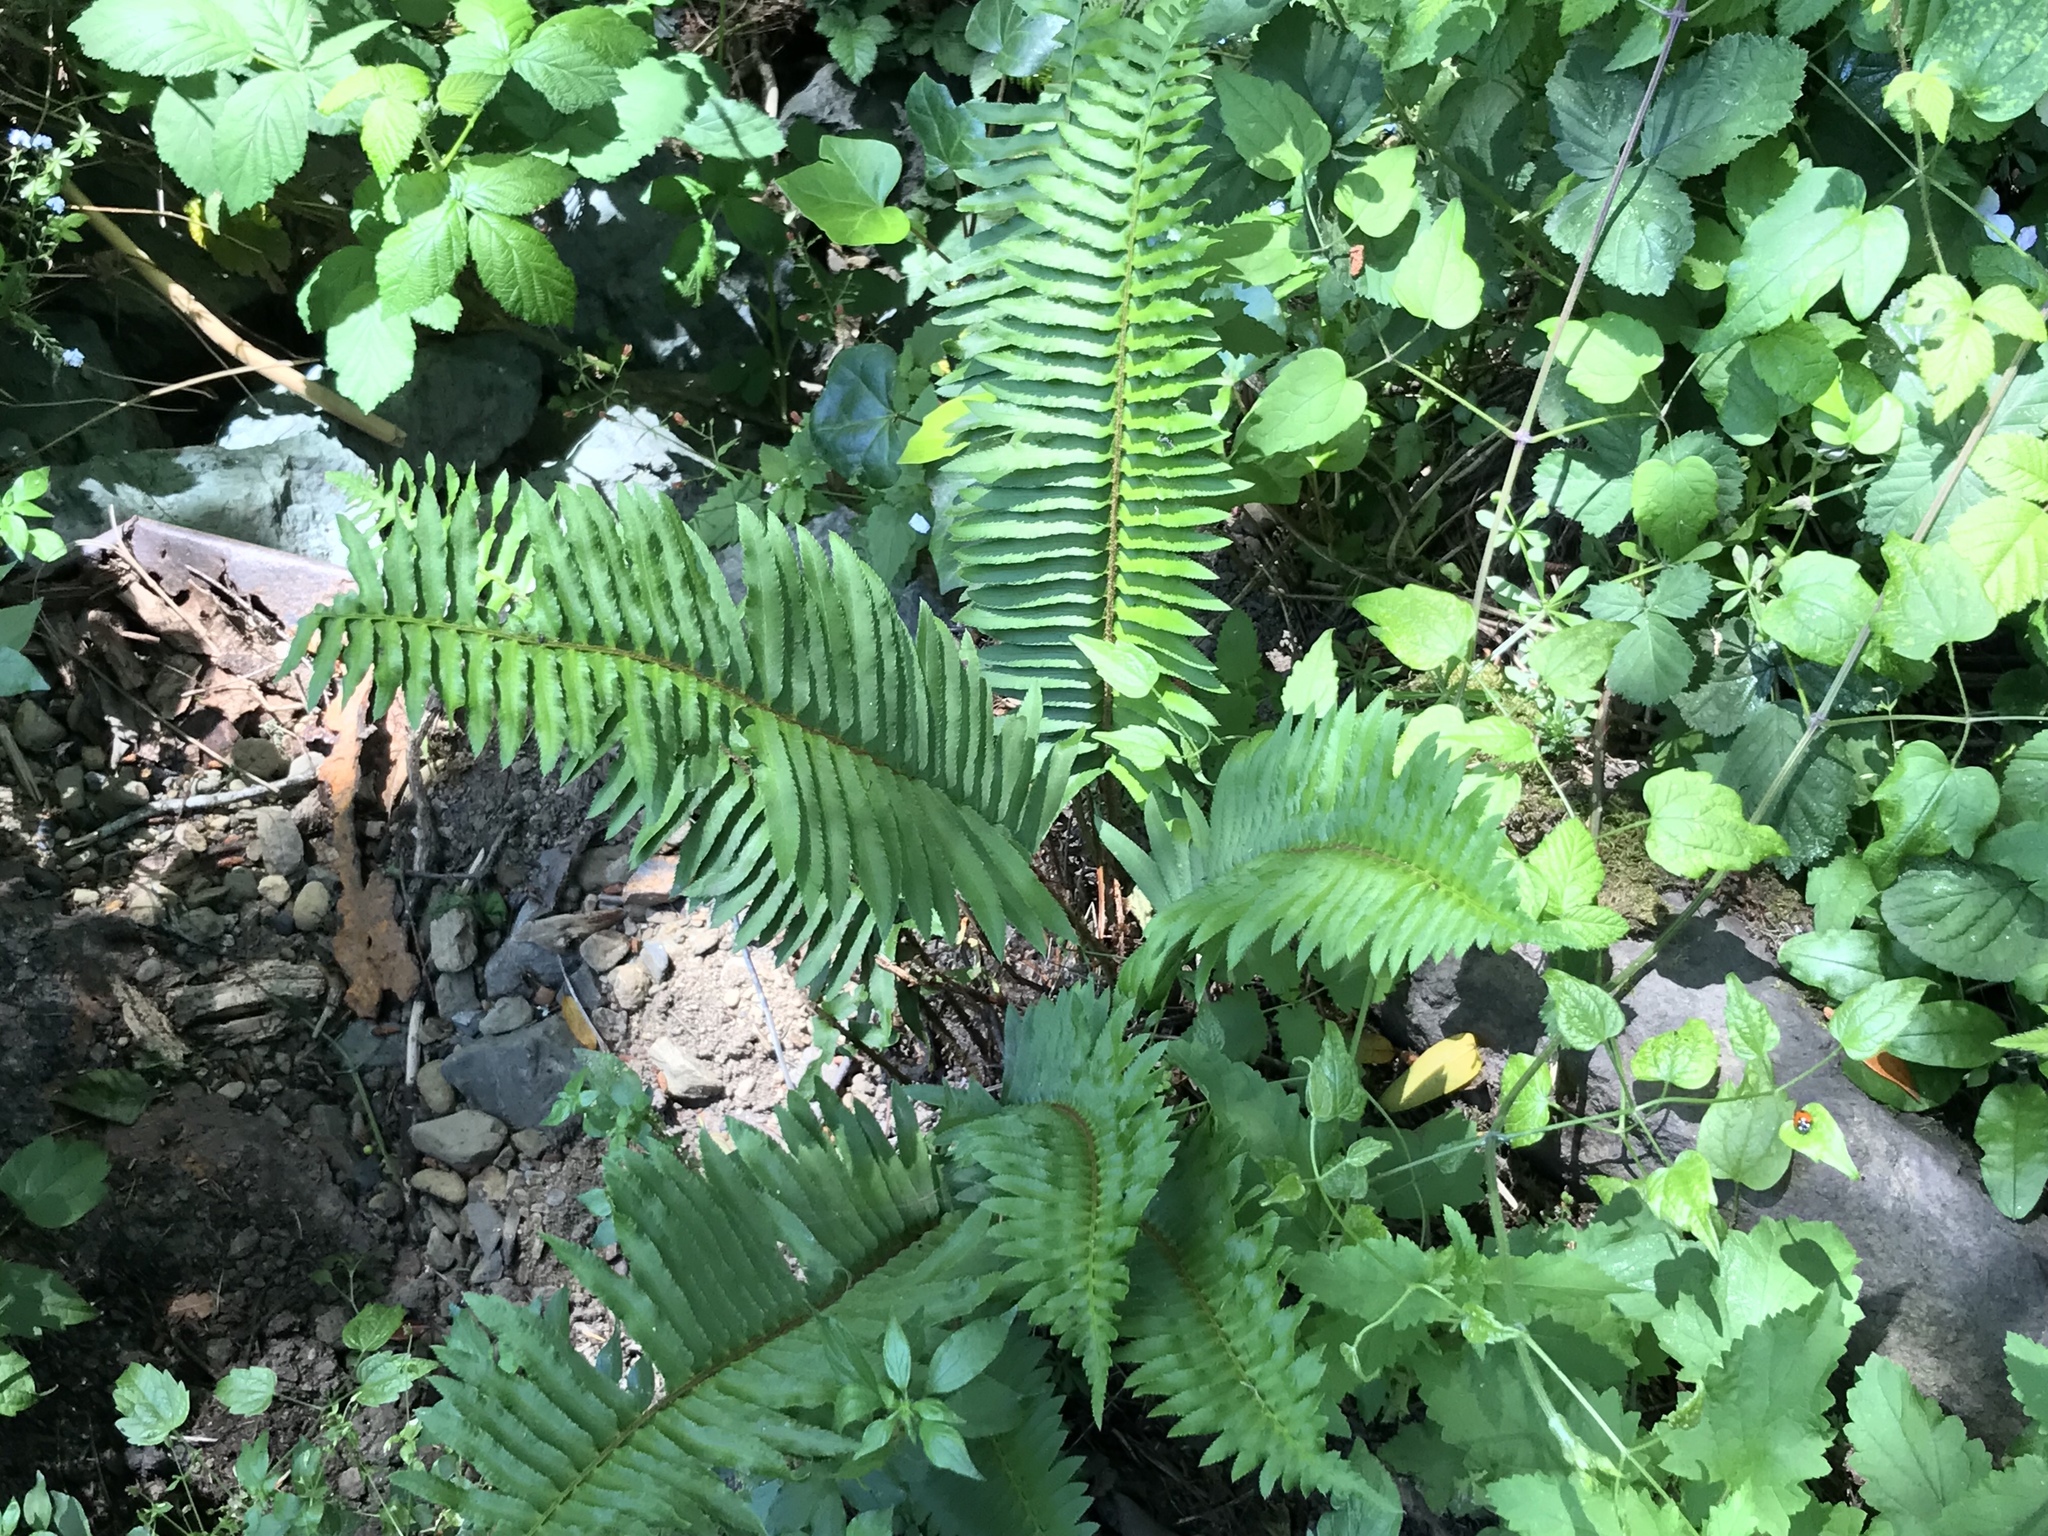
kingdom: Plantae
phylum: Tracheophyta
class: Polypodiopsida
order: Polypodiales
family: Dryopteridaceae
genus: Polystichum
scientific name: Polystichum munitum
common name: Western sword-fern
